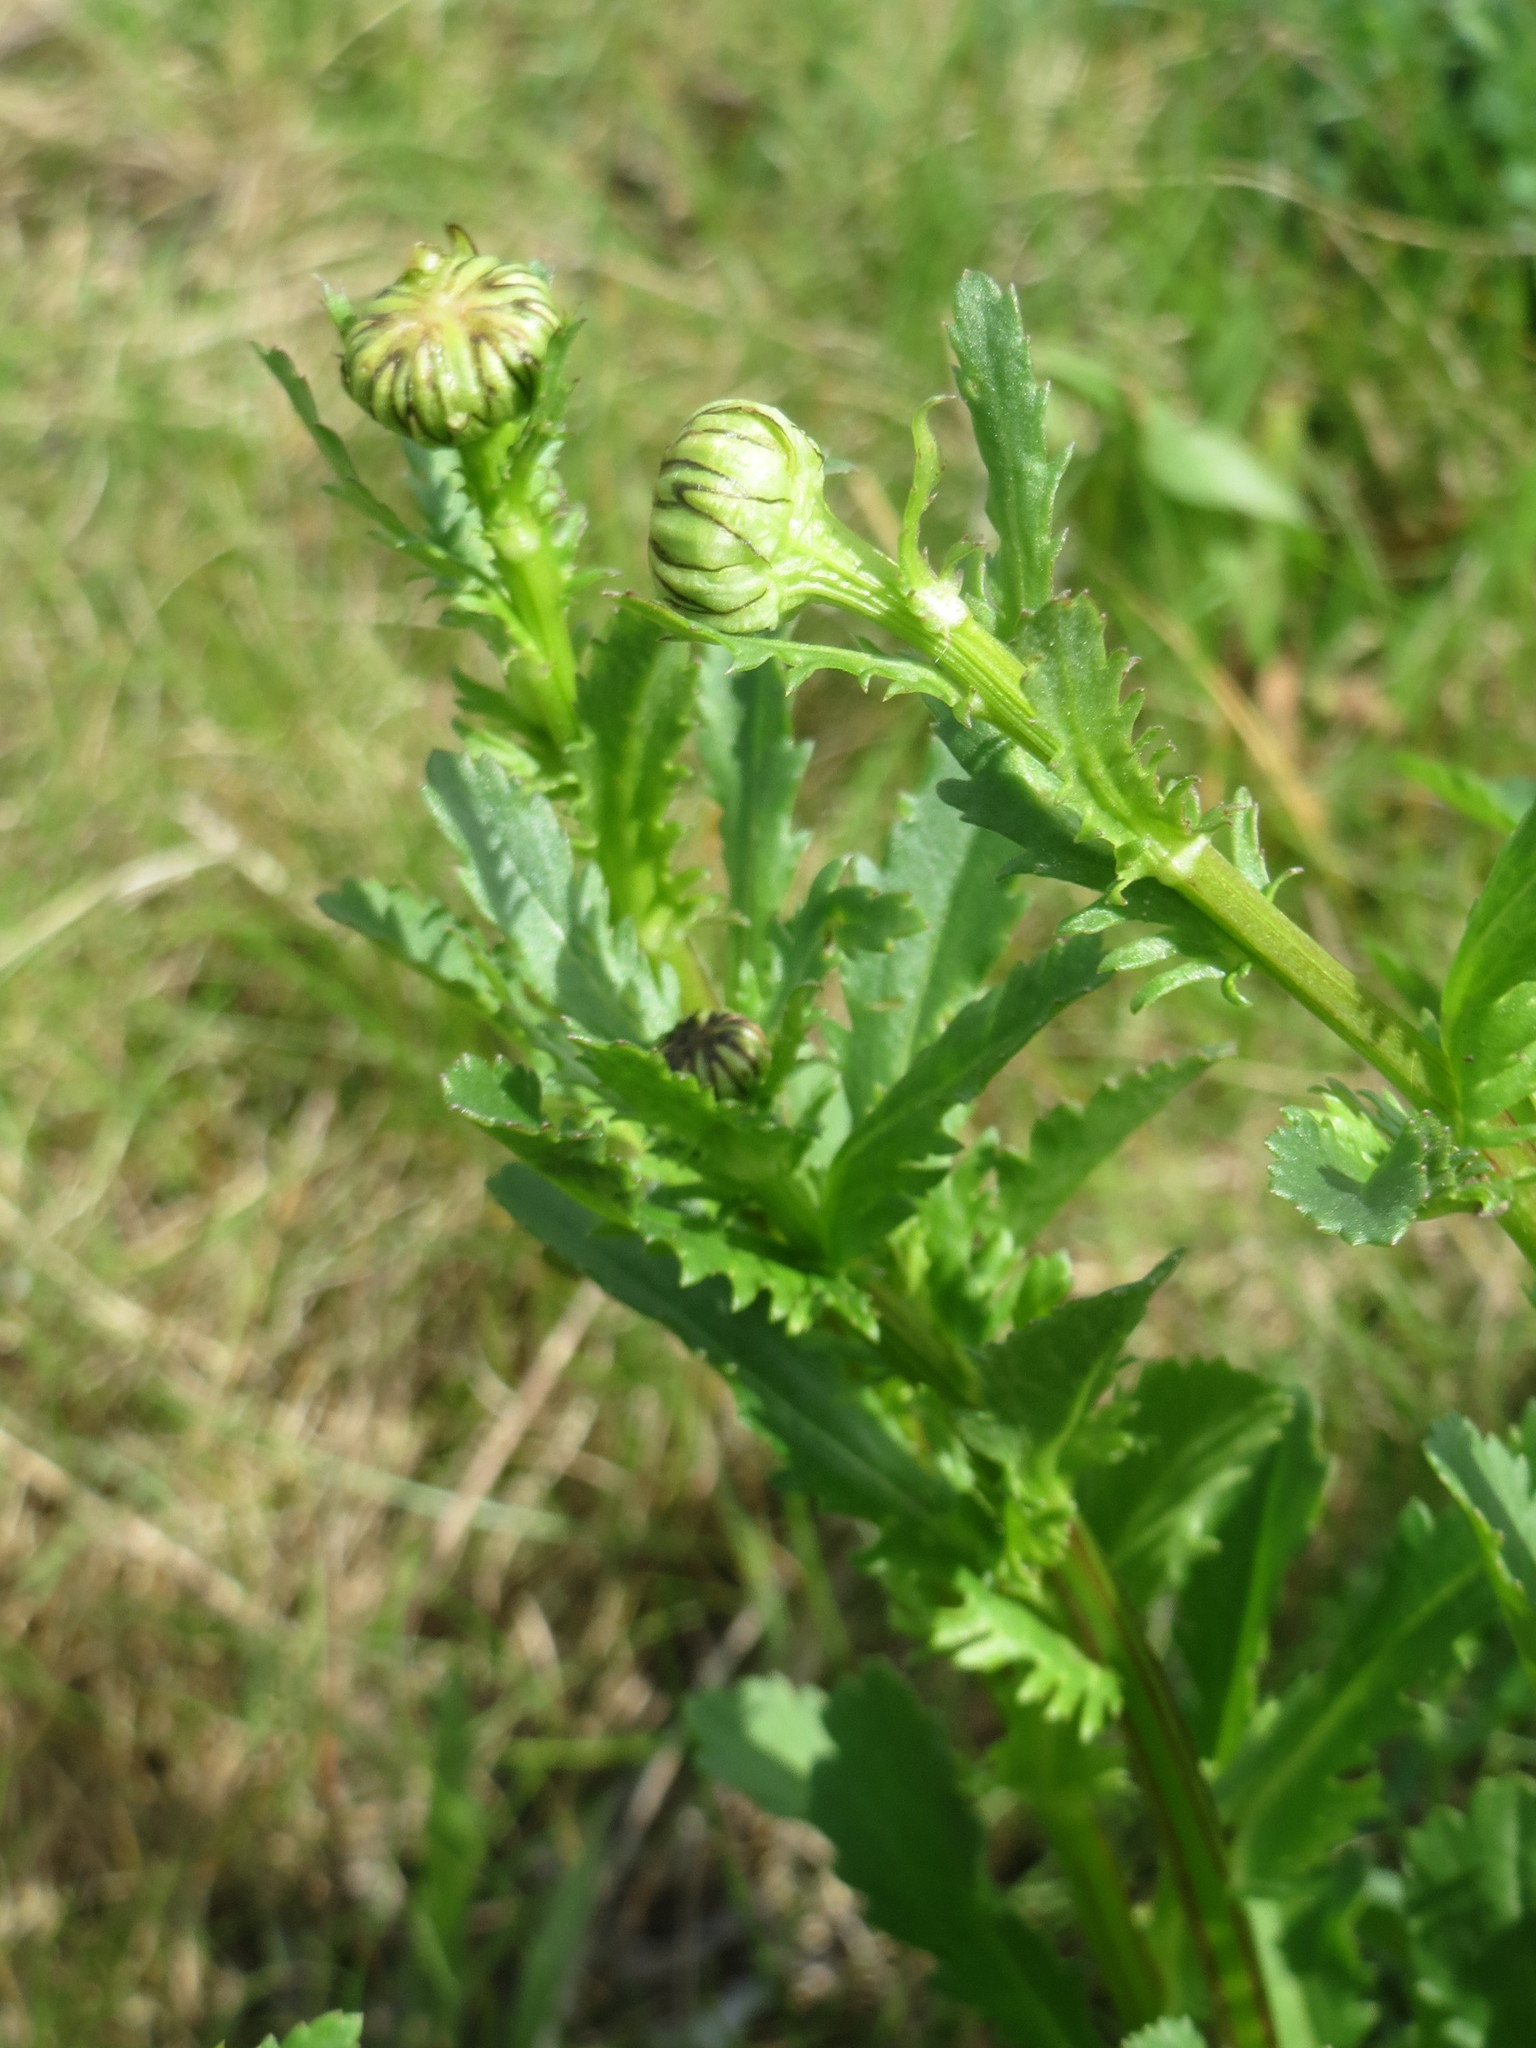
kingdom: Plantae
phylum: Tracheophyta
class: Magnoliopsida
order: Asterales
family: Asteraceae
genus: Leucanthemum
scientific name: Leucanthemum vulgare
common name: Oxeye daisy
